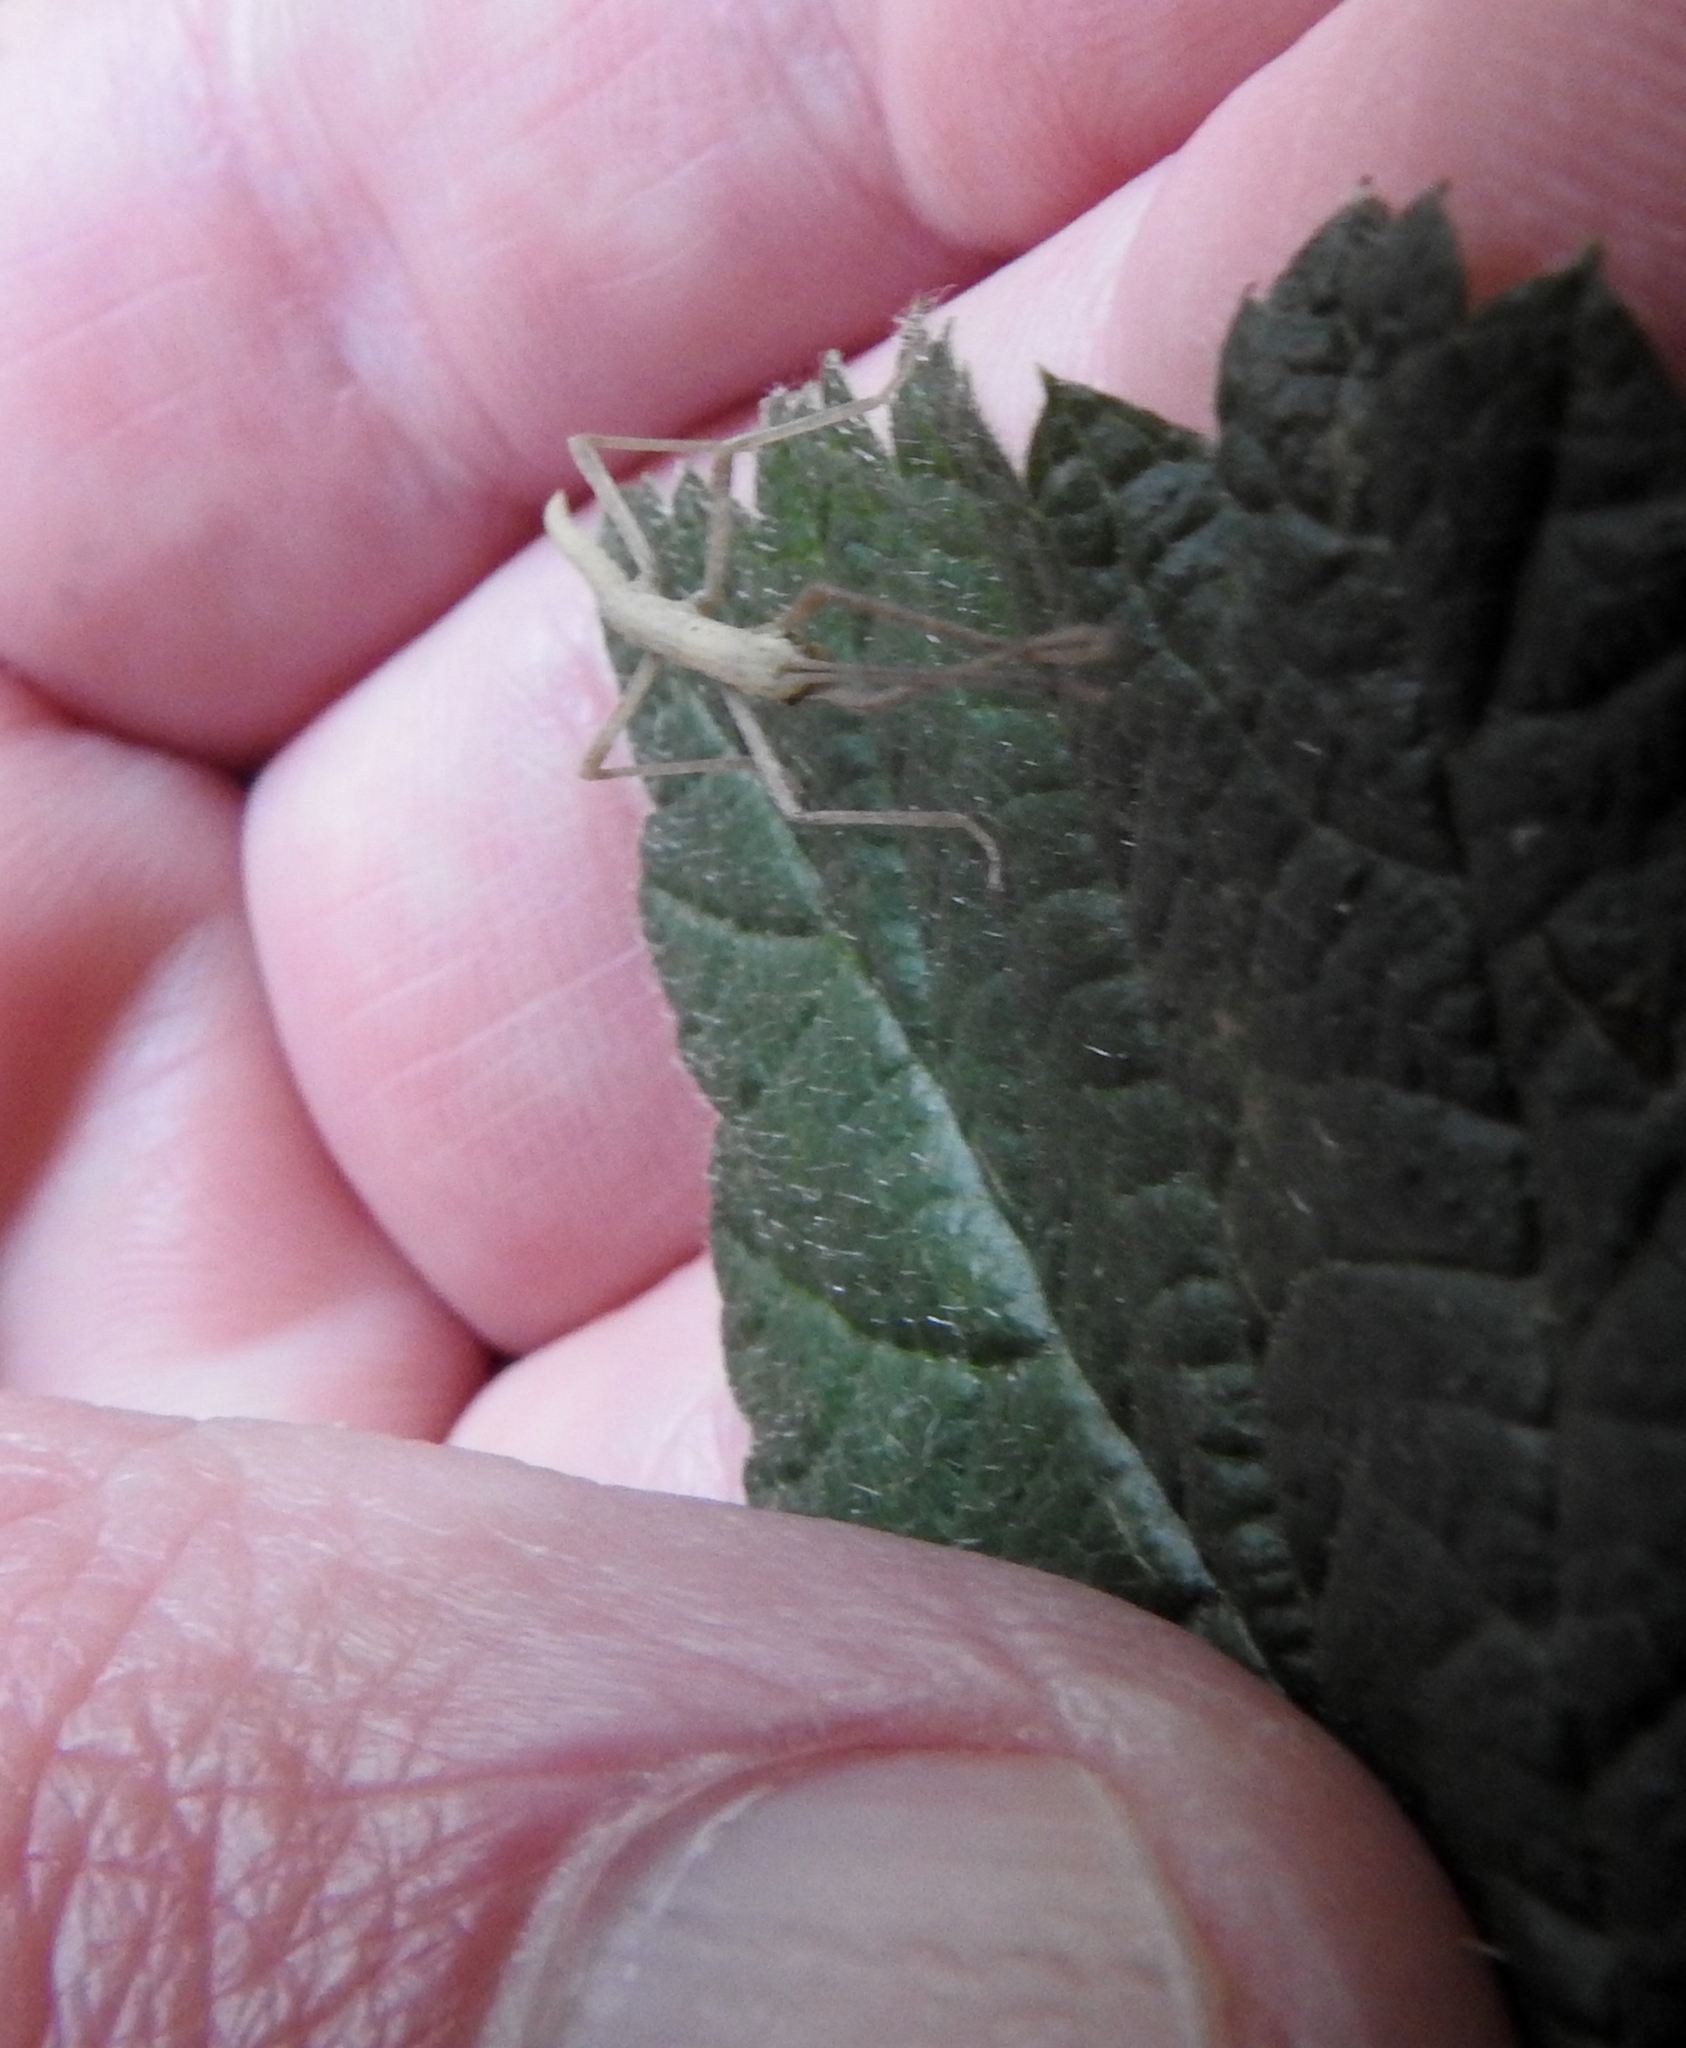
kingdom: Animalia
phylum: Arthropoda
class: Insecta
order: Phasmida
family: Lonchodidae
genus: Carausius
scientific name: Carausius morosus
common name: Indian stick insect
